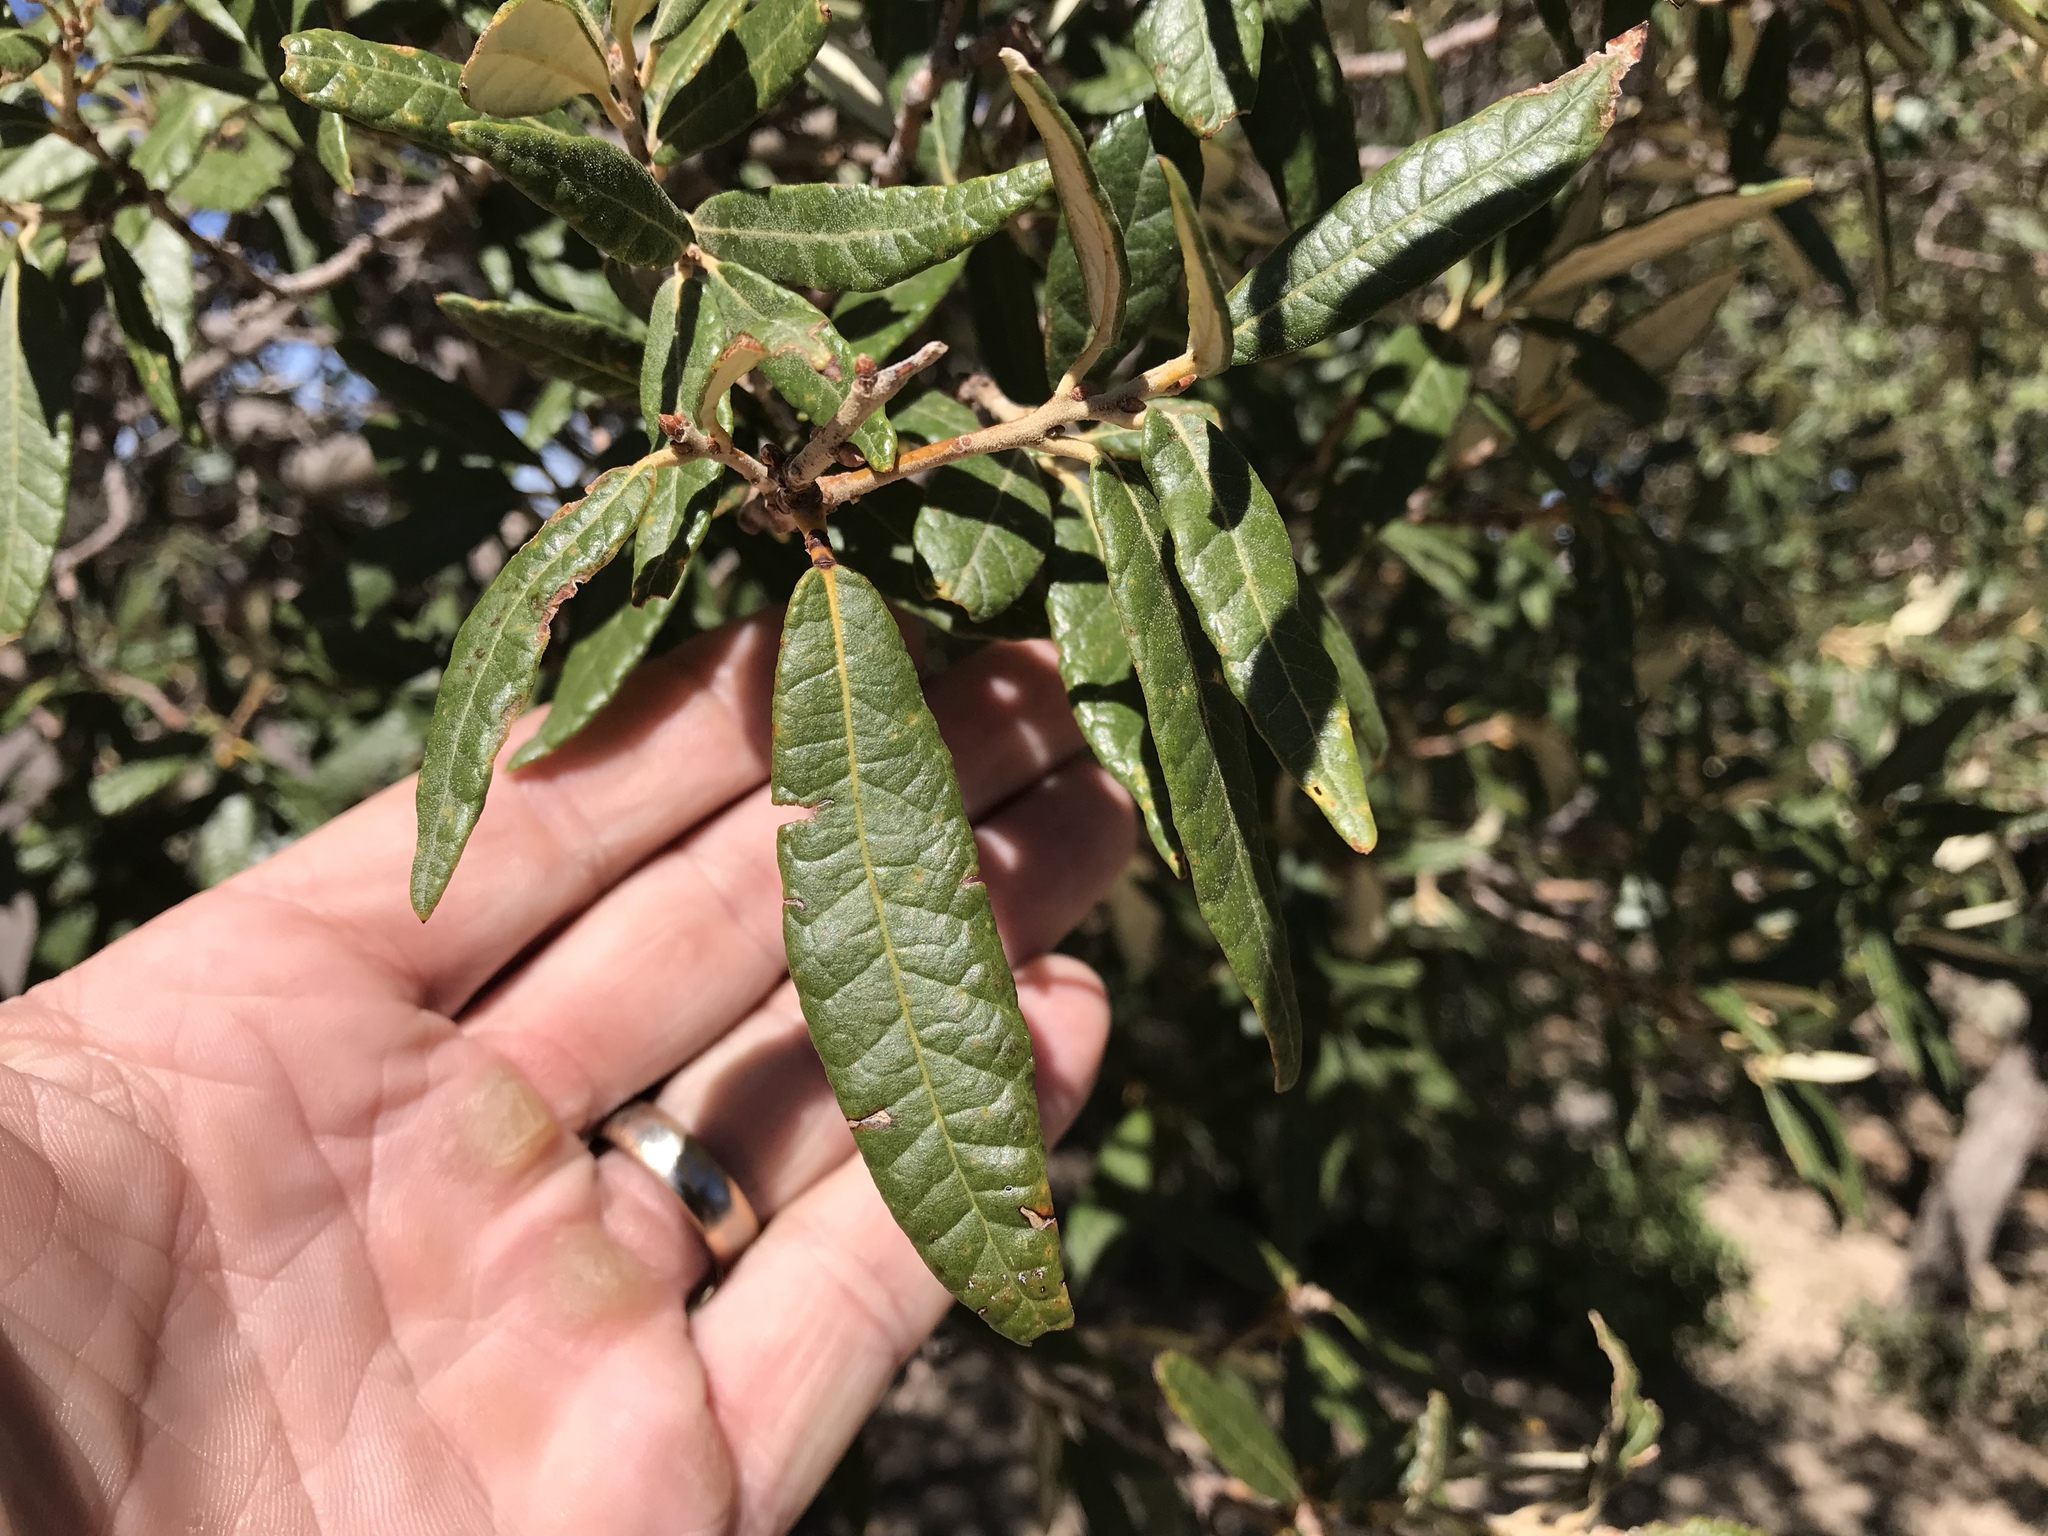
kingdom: Plantae
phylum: Tracheophyta
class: Magnoliopsida
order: Fagales
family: Fagaceae
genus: Quercus
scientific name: Quercus hypoleucoides
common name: Silverleaf oak
